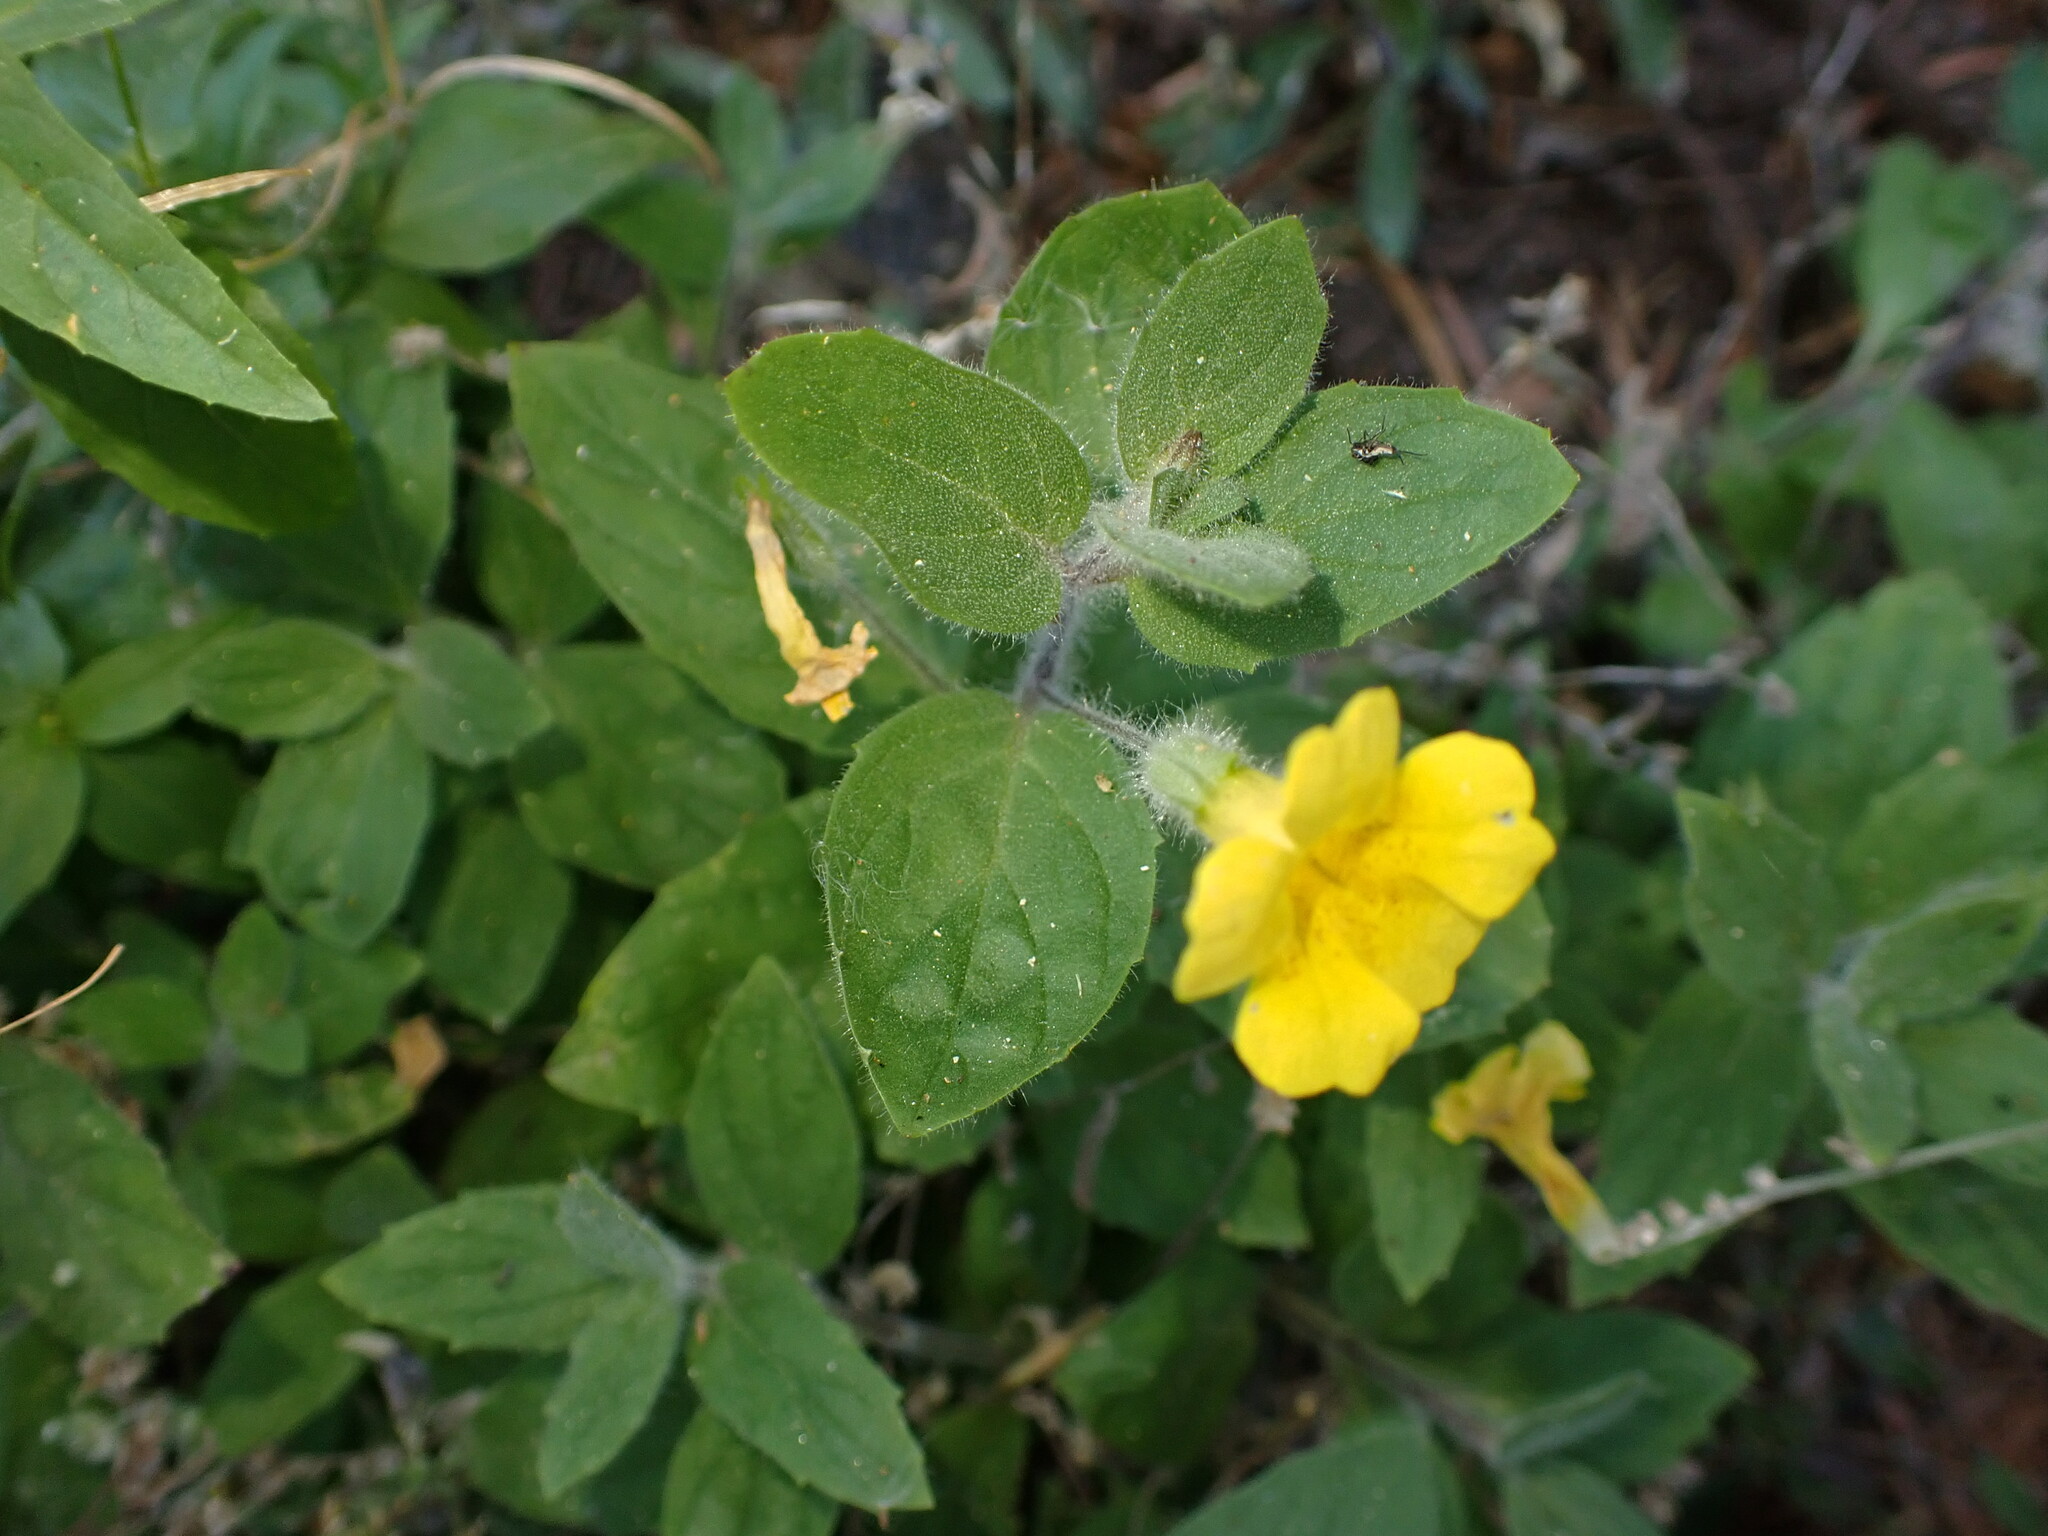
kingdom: Plantae
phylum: Tracheophyta
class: Magnoliopsida
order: Lamiales
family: Phrymaceae
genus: Erythranthe
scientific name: Erythranthe moschata
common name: Muskflower
